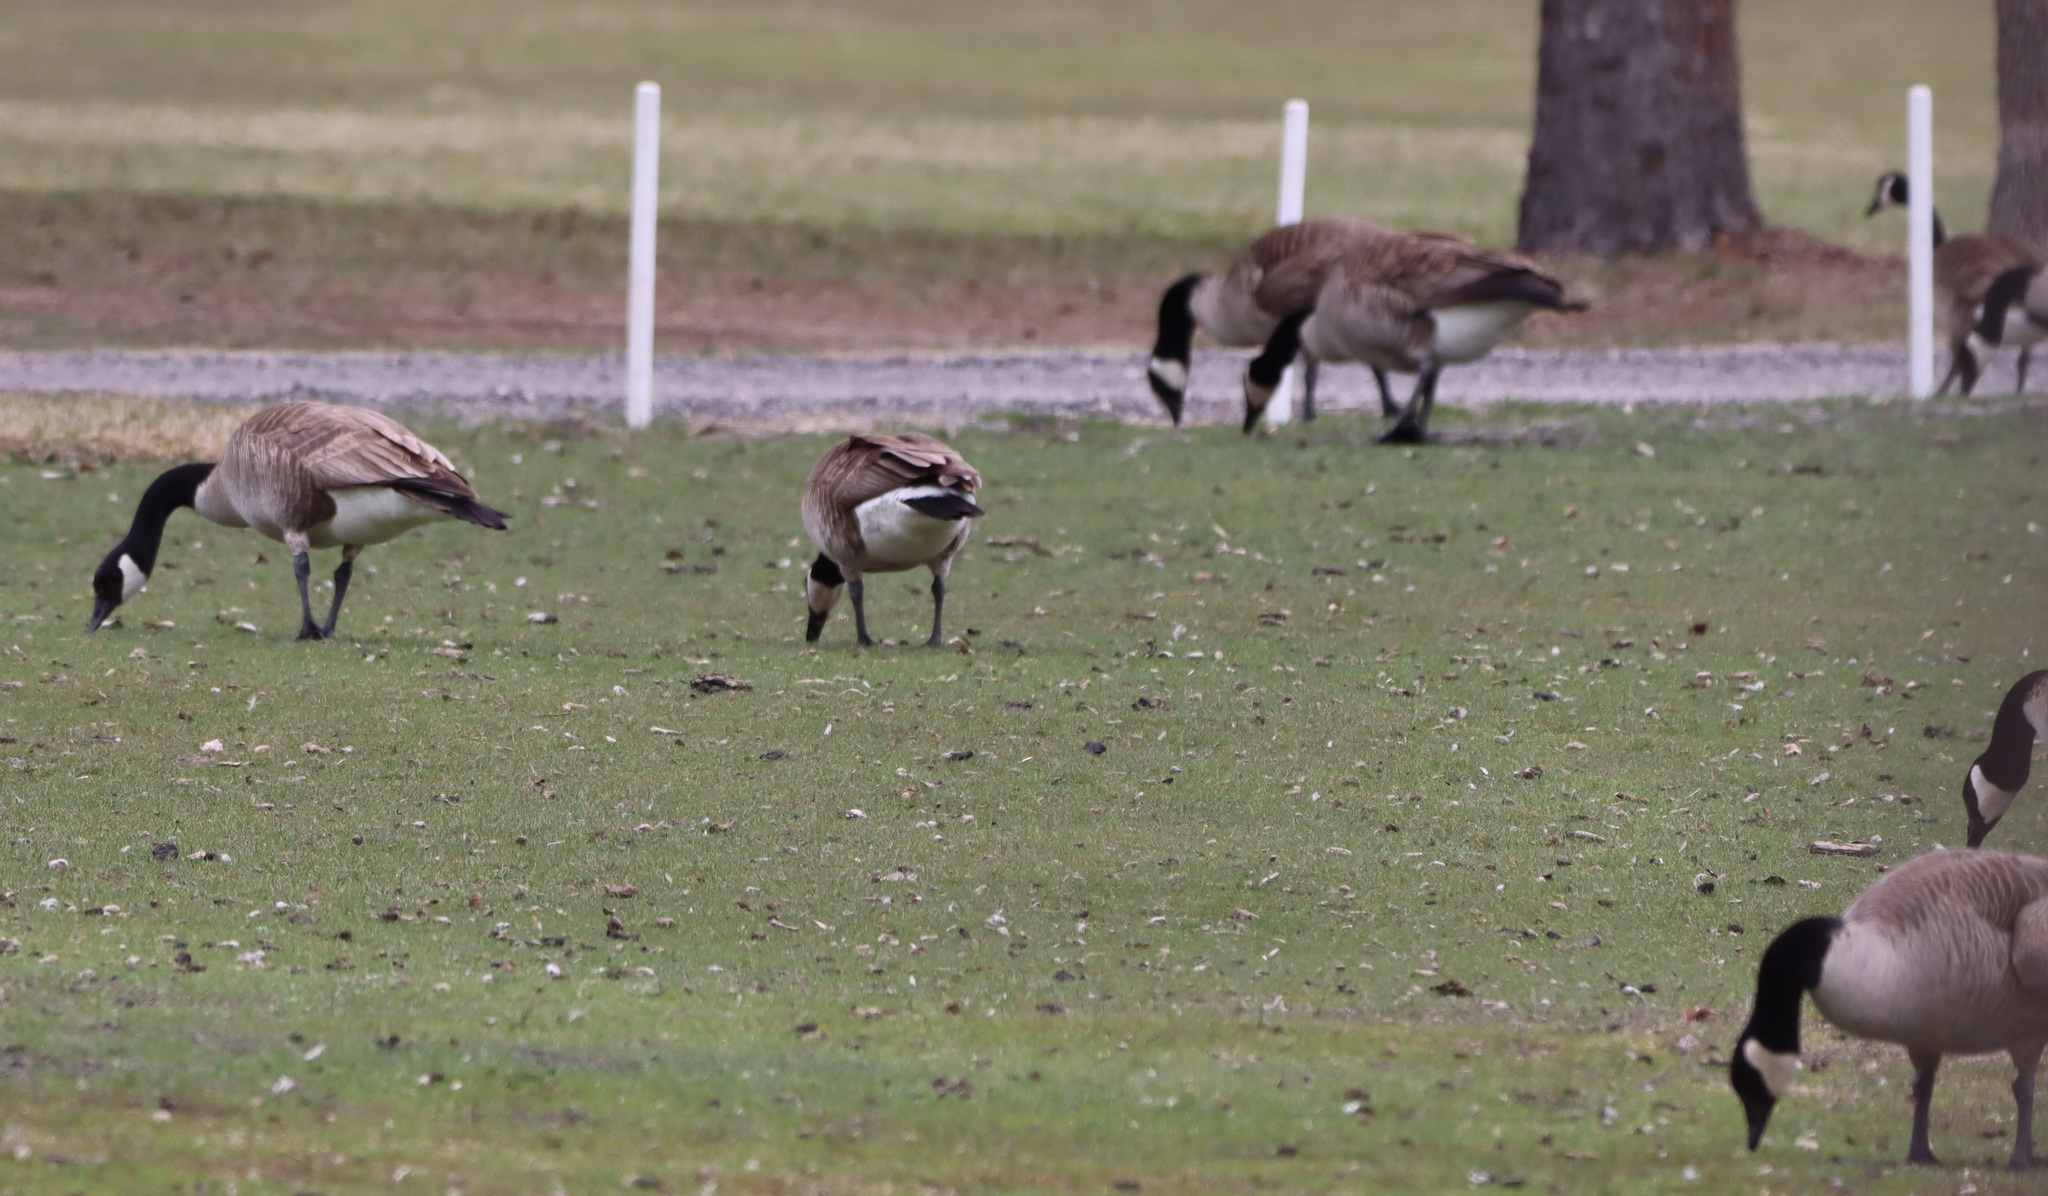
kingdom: Animalia
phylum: Chordata
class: Aves
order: Anseriformes
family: Anatidae
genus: Branta
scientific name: Branta canadensis
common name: Canada goose
